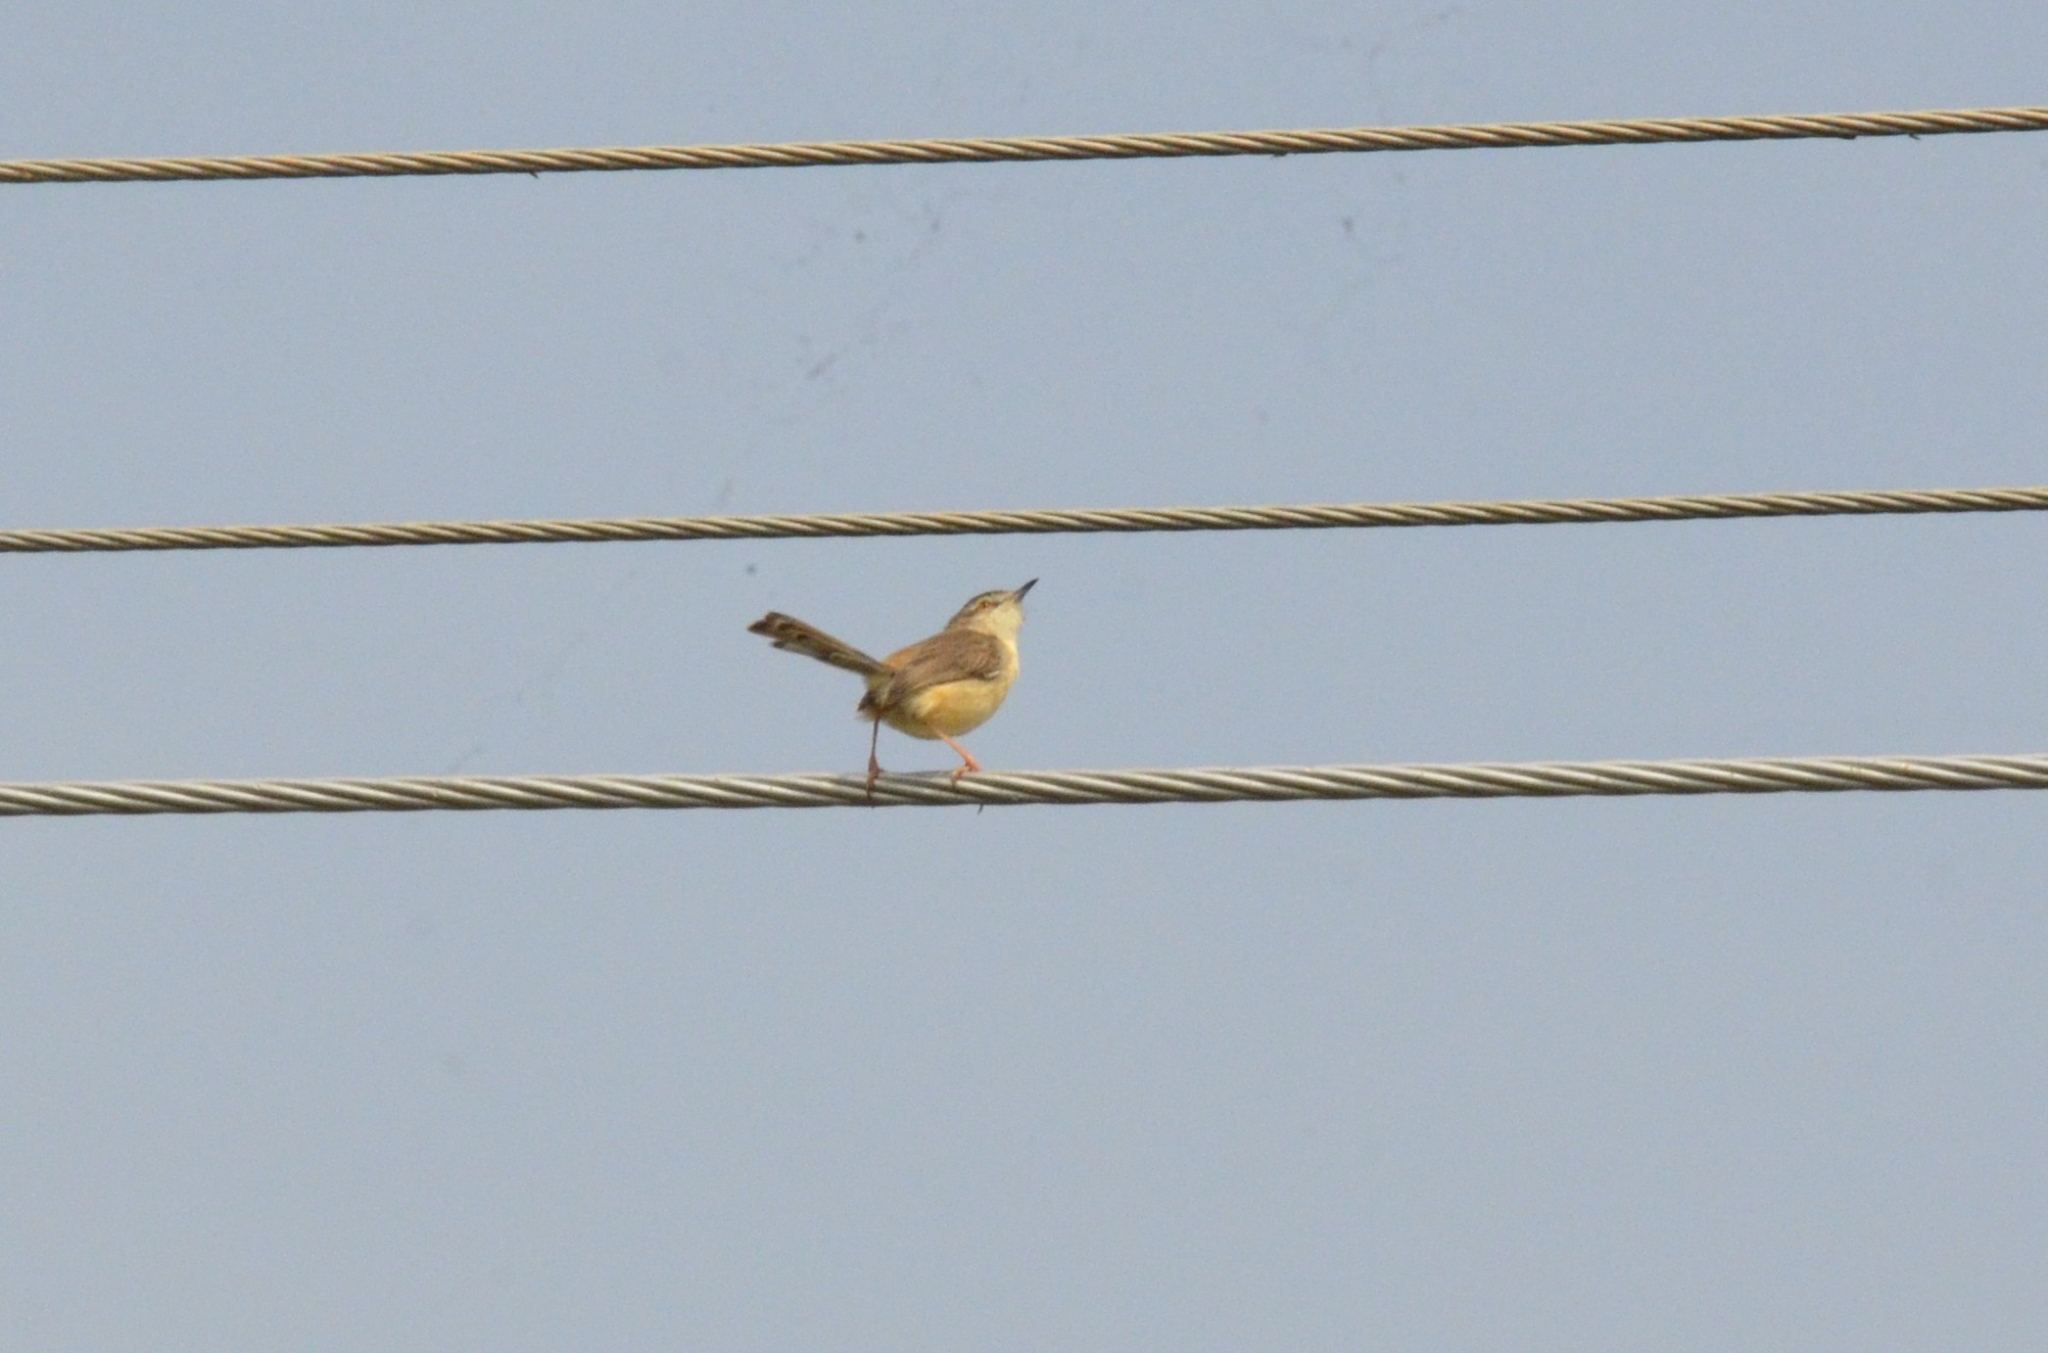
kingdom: Animalia
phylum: Chordata
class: Aves
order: Passeriformes
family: Cisticolidae
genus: Prinia
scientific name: Prinia inornata
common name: Plain prinia
